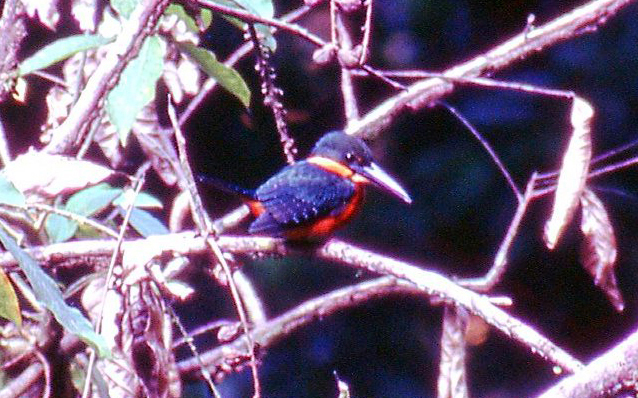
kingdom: Animalia
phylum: Chordata
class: Aves
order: Coraciiformes
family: Alcedinidae
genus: Chloroceryle
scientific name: Chloroceryle inda
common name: Green-and-rufous kingfisher
